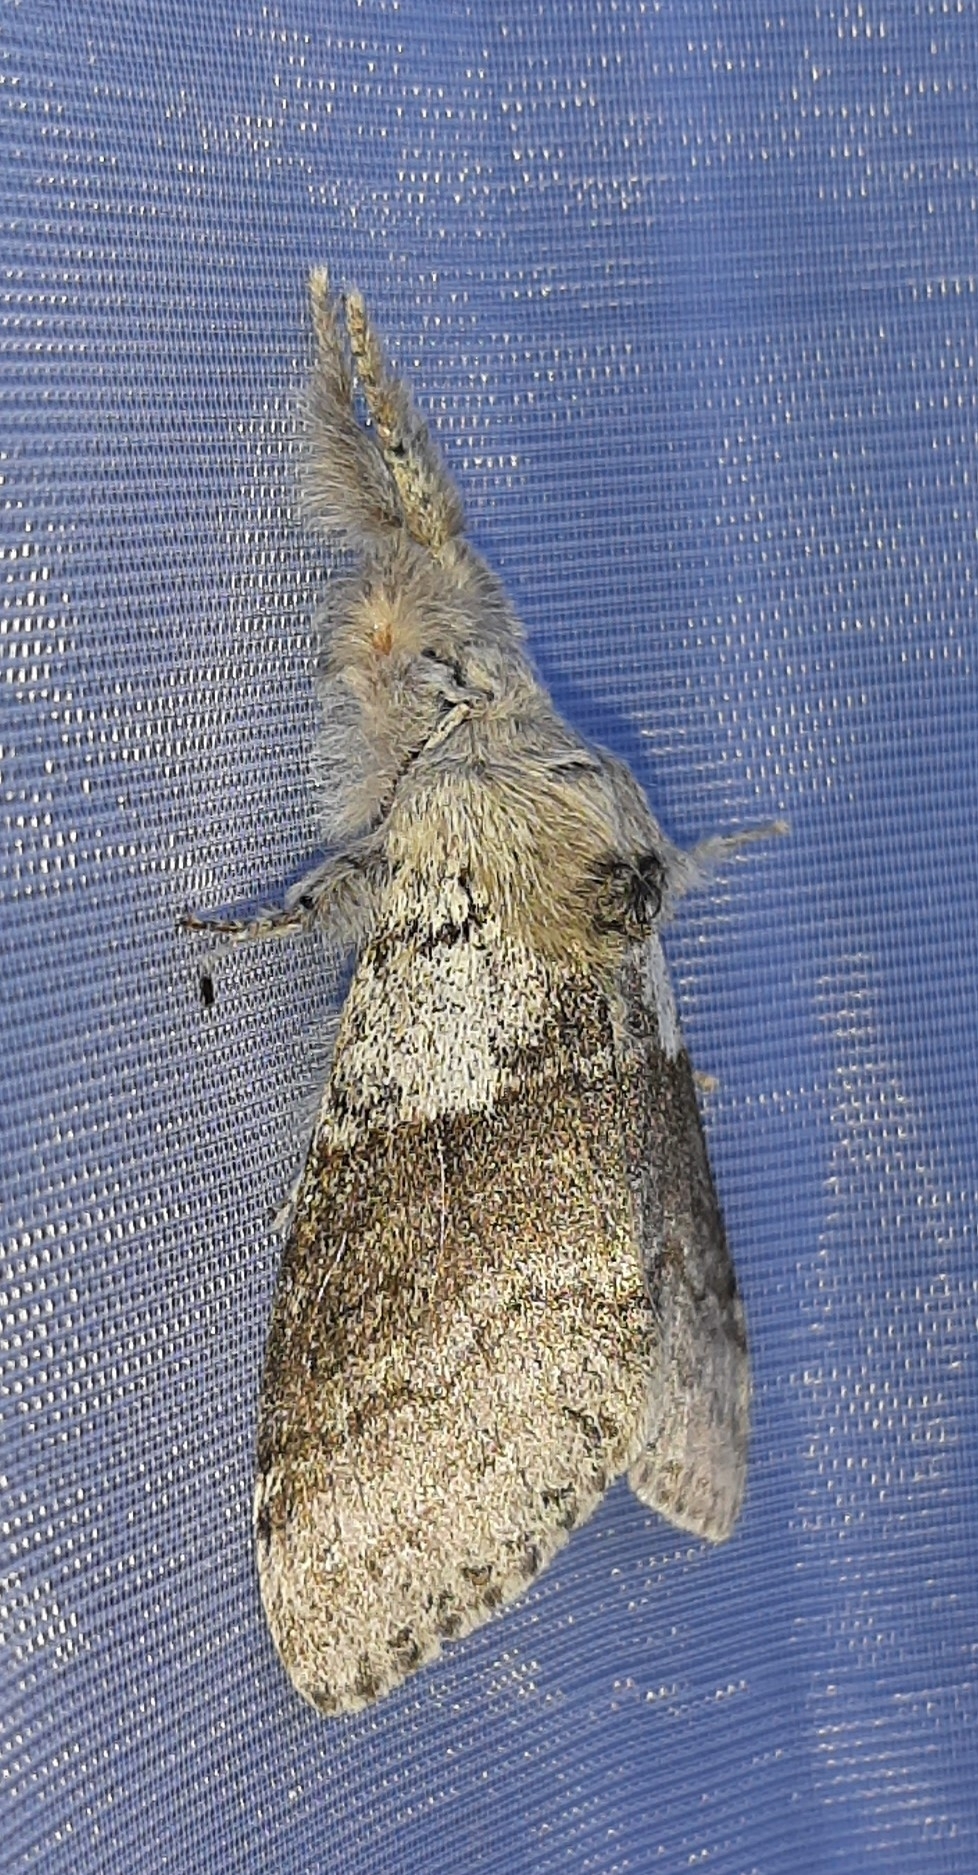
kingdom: Animalia
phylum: Arthropoda
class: Insecta
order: Lepidoptera
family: Erebidae
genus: Calliteara
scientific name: Calliteara pudibunda
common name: Pale tussock
